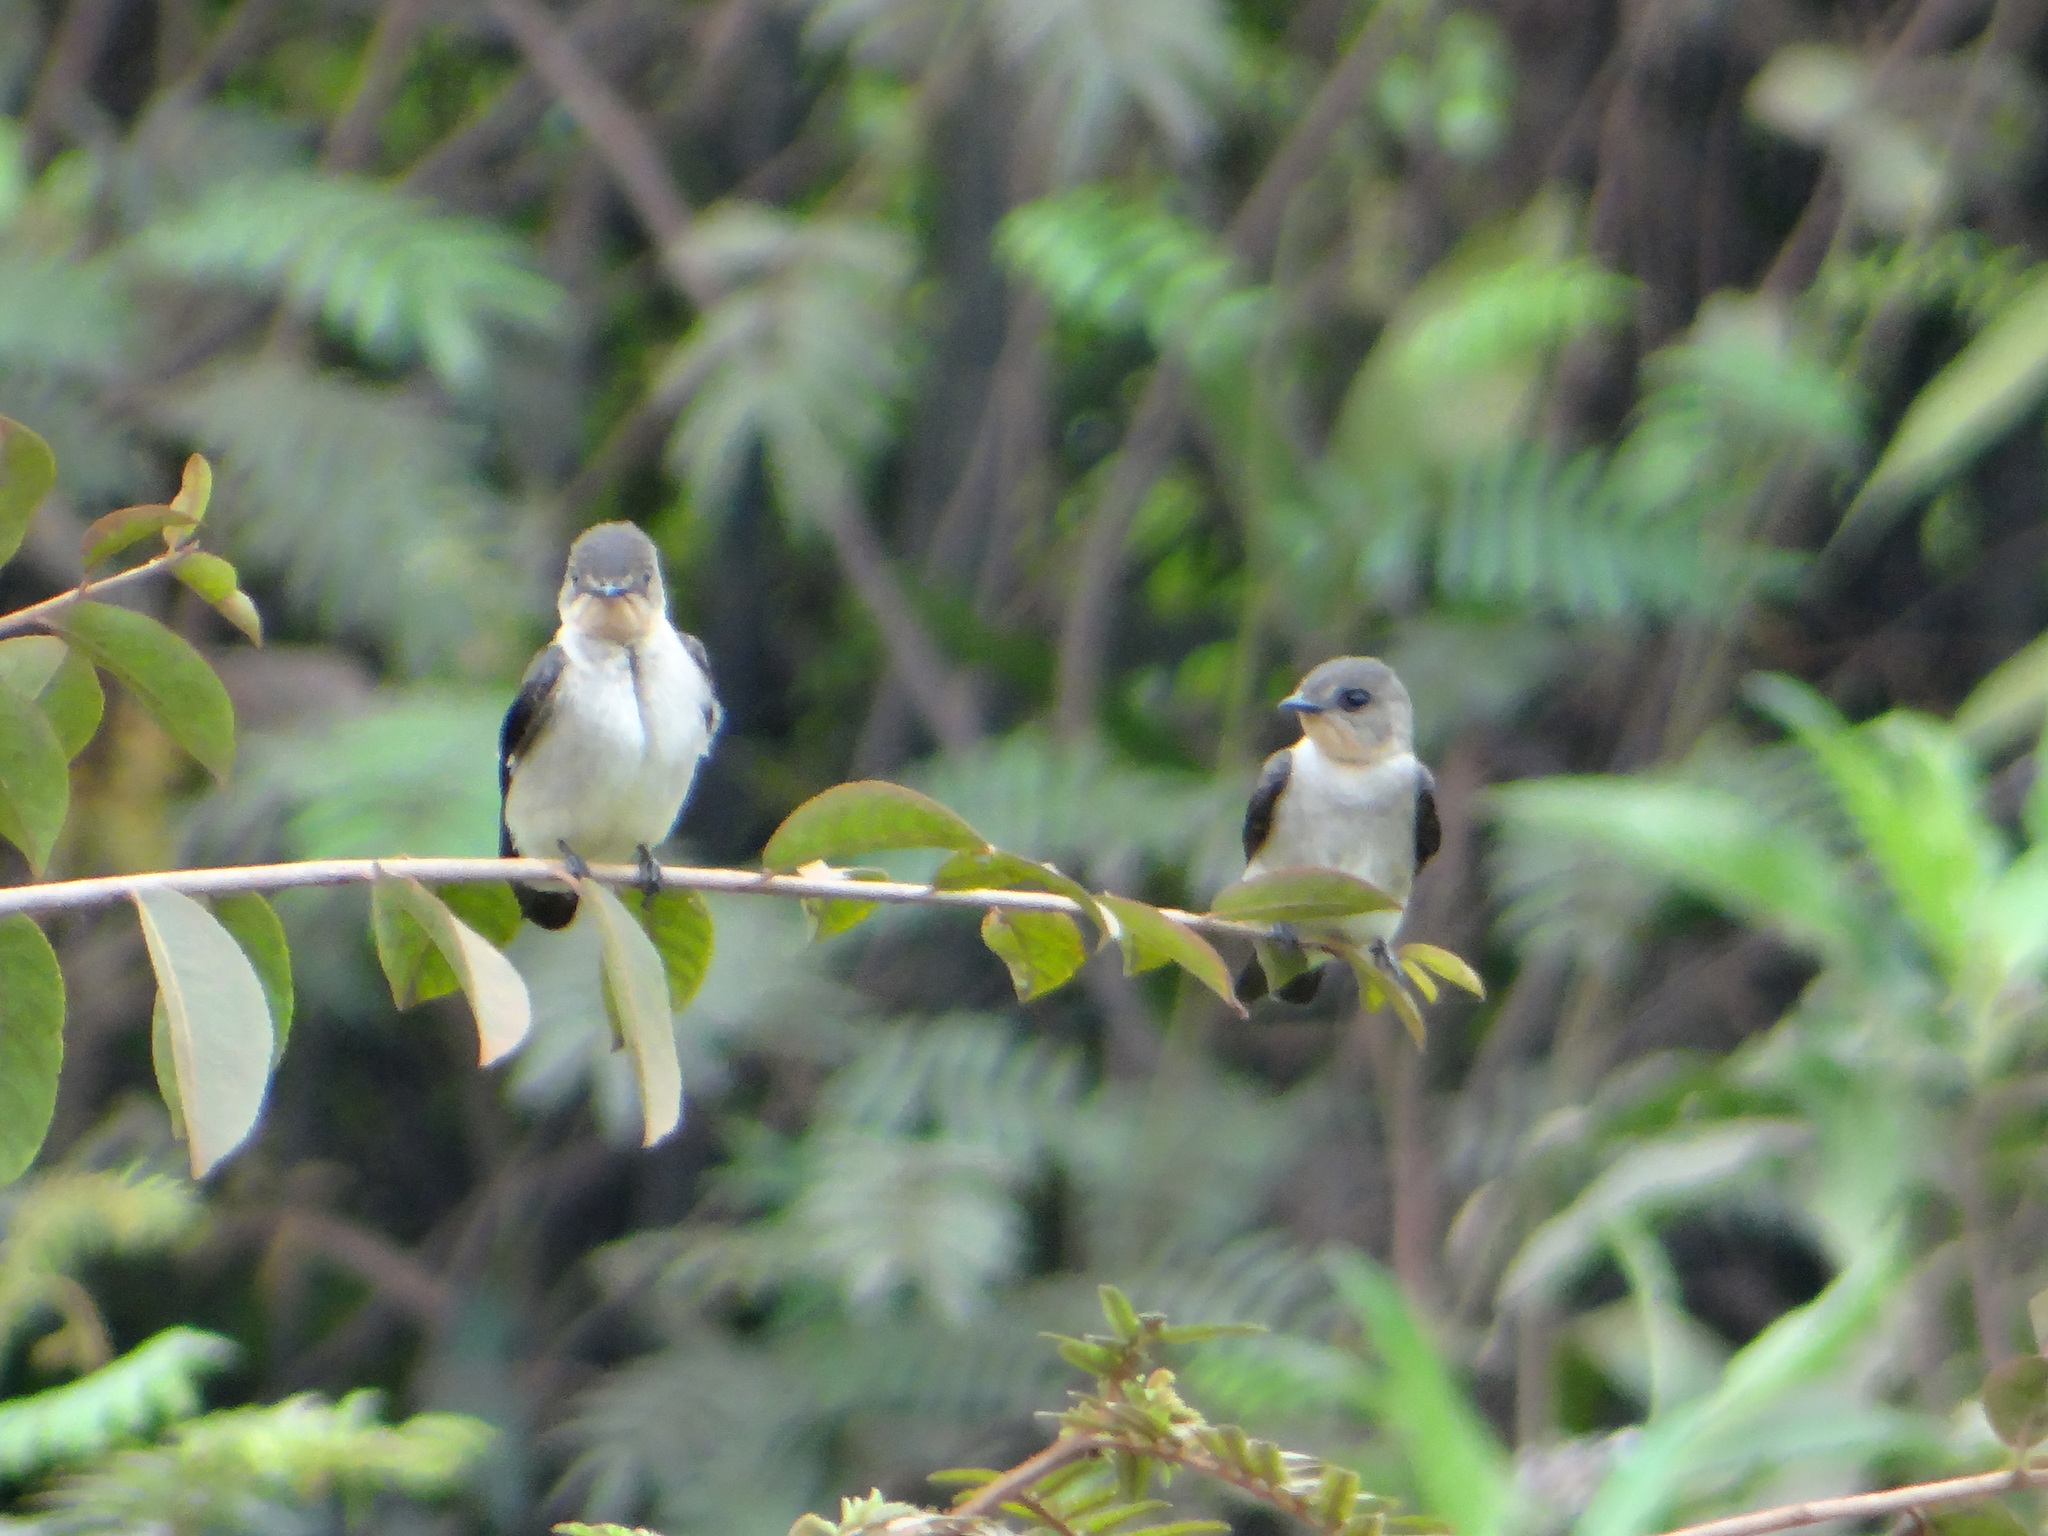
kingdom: Animalia
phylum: Chordata
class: Aves
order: Passeriformes
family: Hirundinidae
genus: Stelgidopteryx
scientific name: Stelgidopteryx ruficollis
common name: Southern rough-winged swallow
